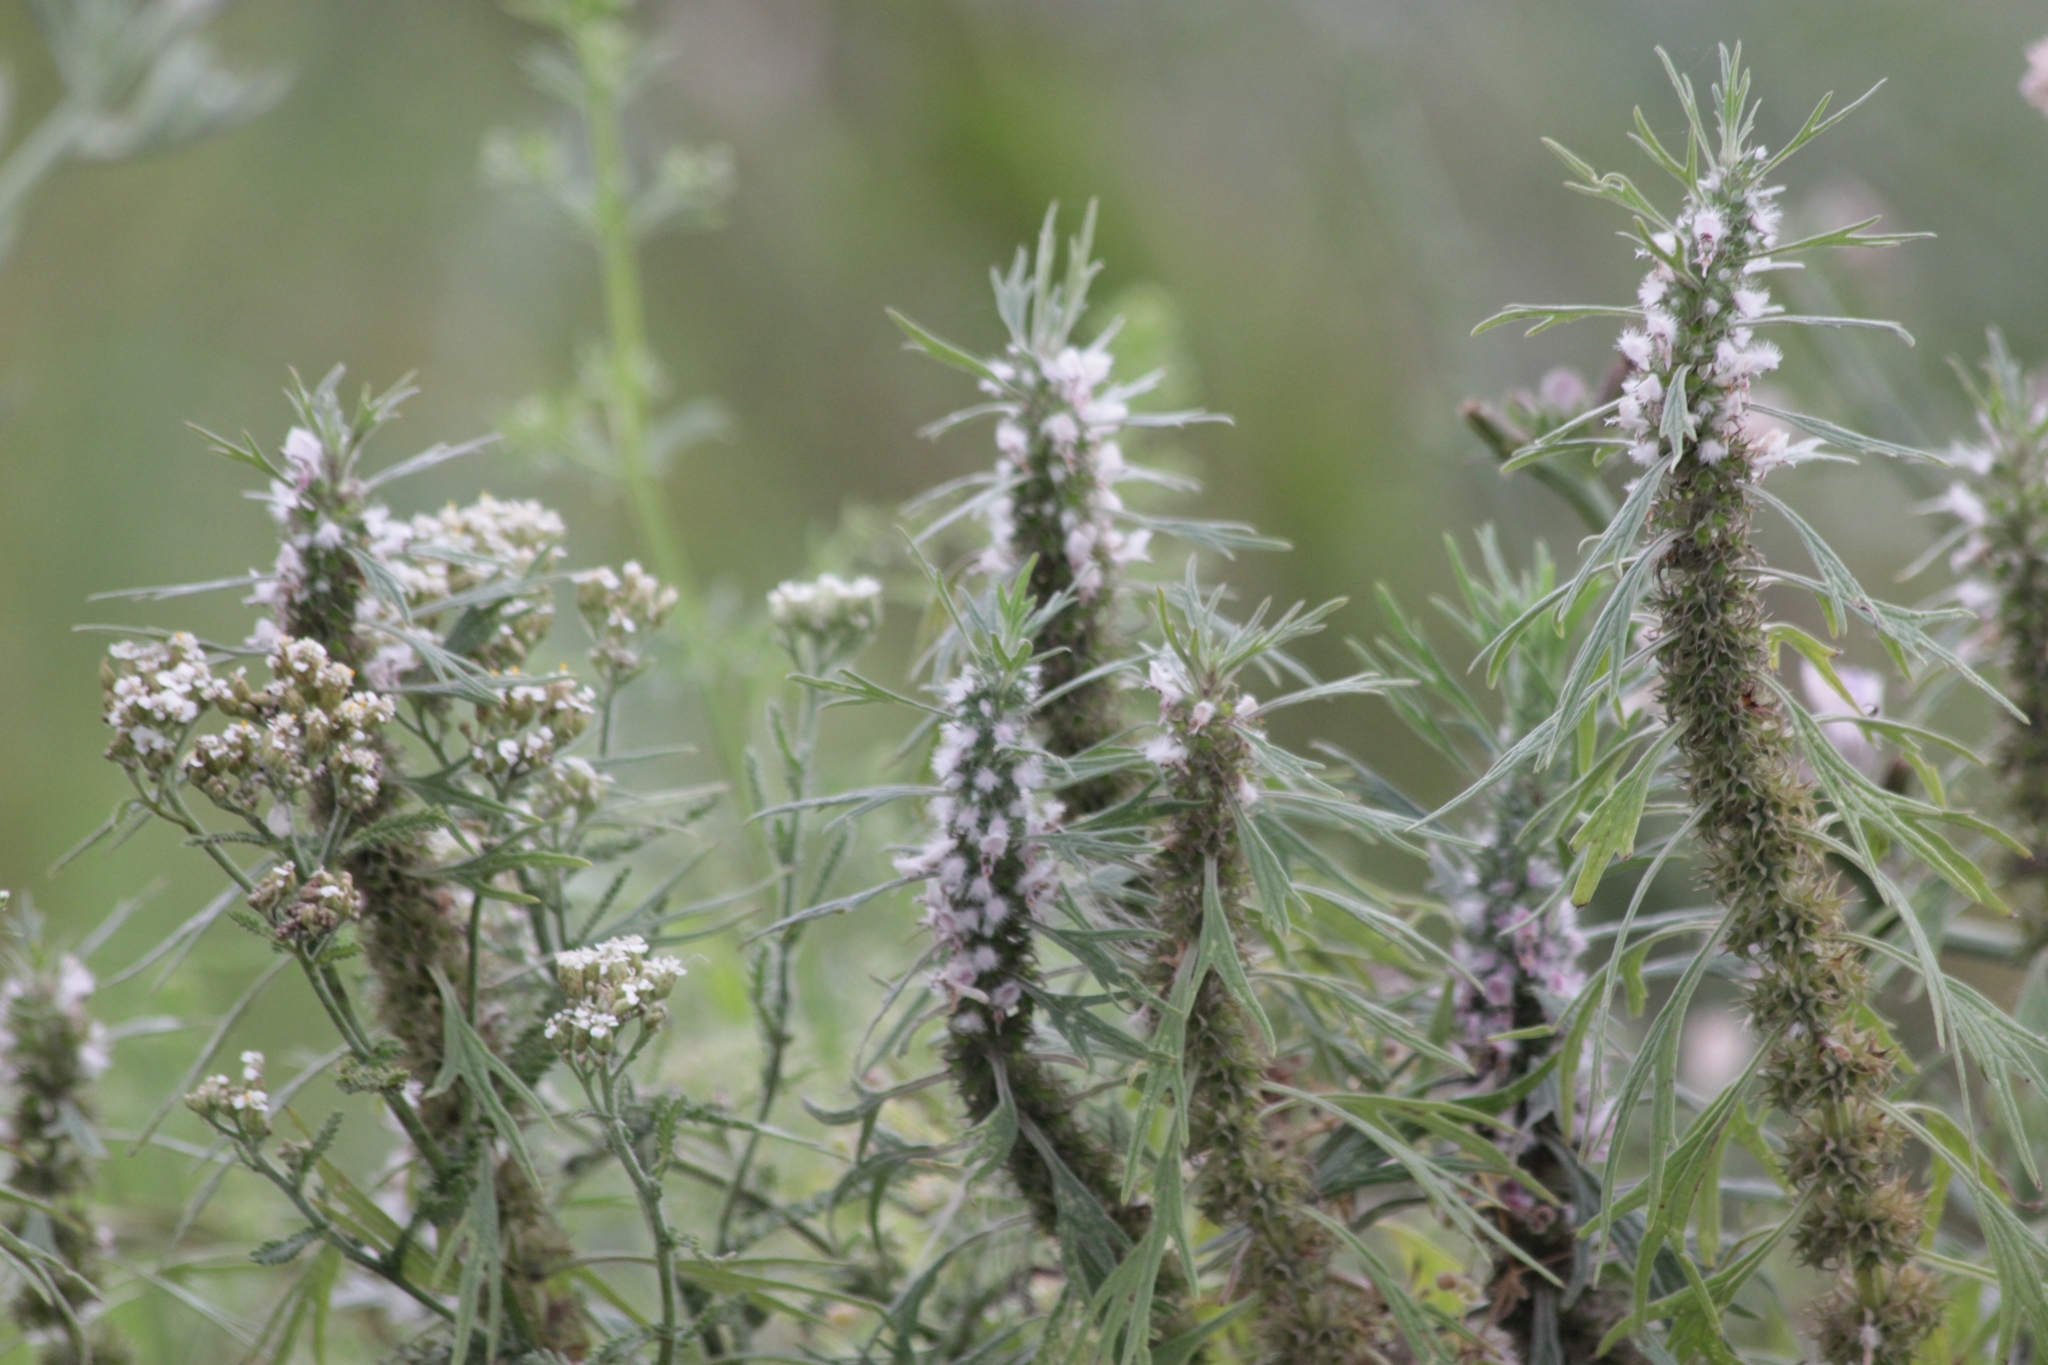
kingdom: Plantae
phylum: Tracheophyta
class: Magnoliopsida
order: Lamiales
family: Lamiaceae
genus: Leonurus
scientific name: Leonurus glaucescens
